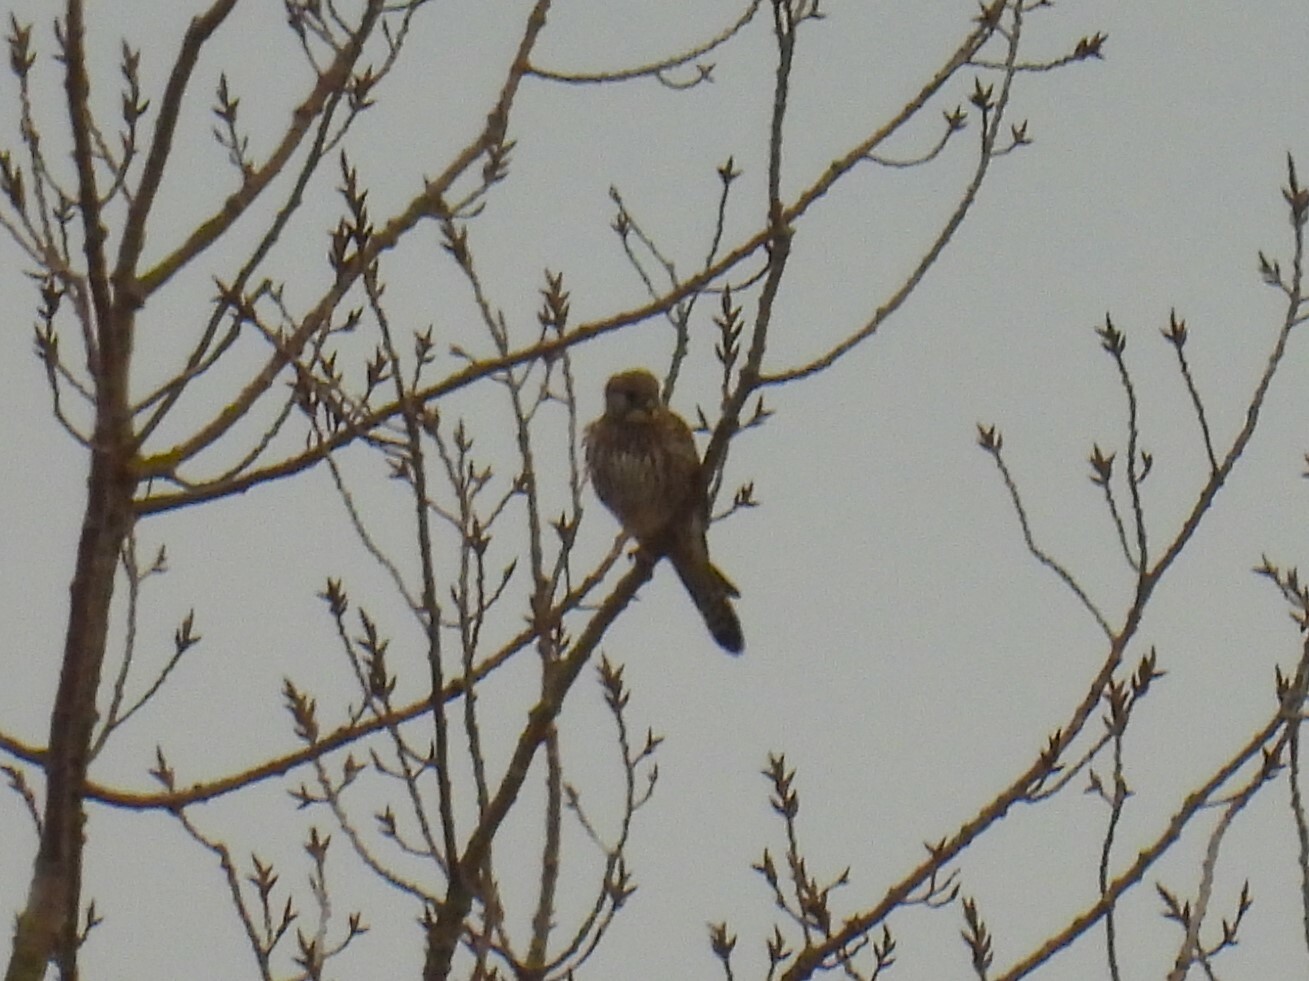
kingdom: Animalia
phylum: Chordata
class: Aves
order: Falconiformes
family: Falconidae
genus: Falco
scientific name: Falco tinnunculus
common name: Common kestrel
